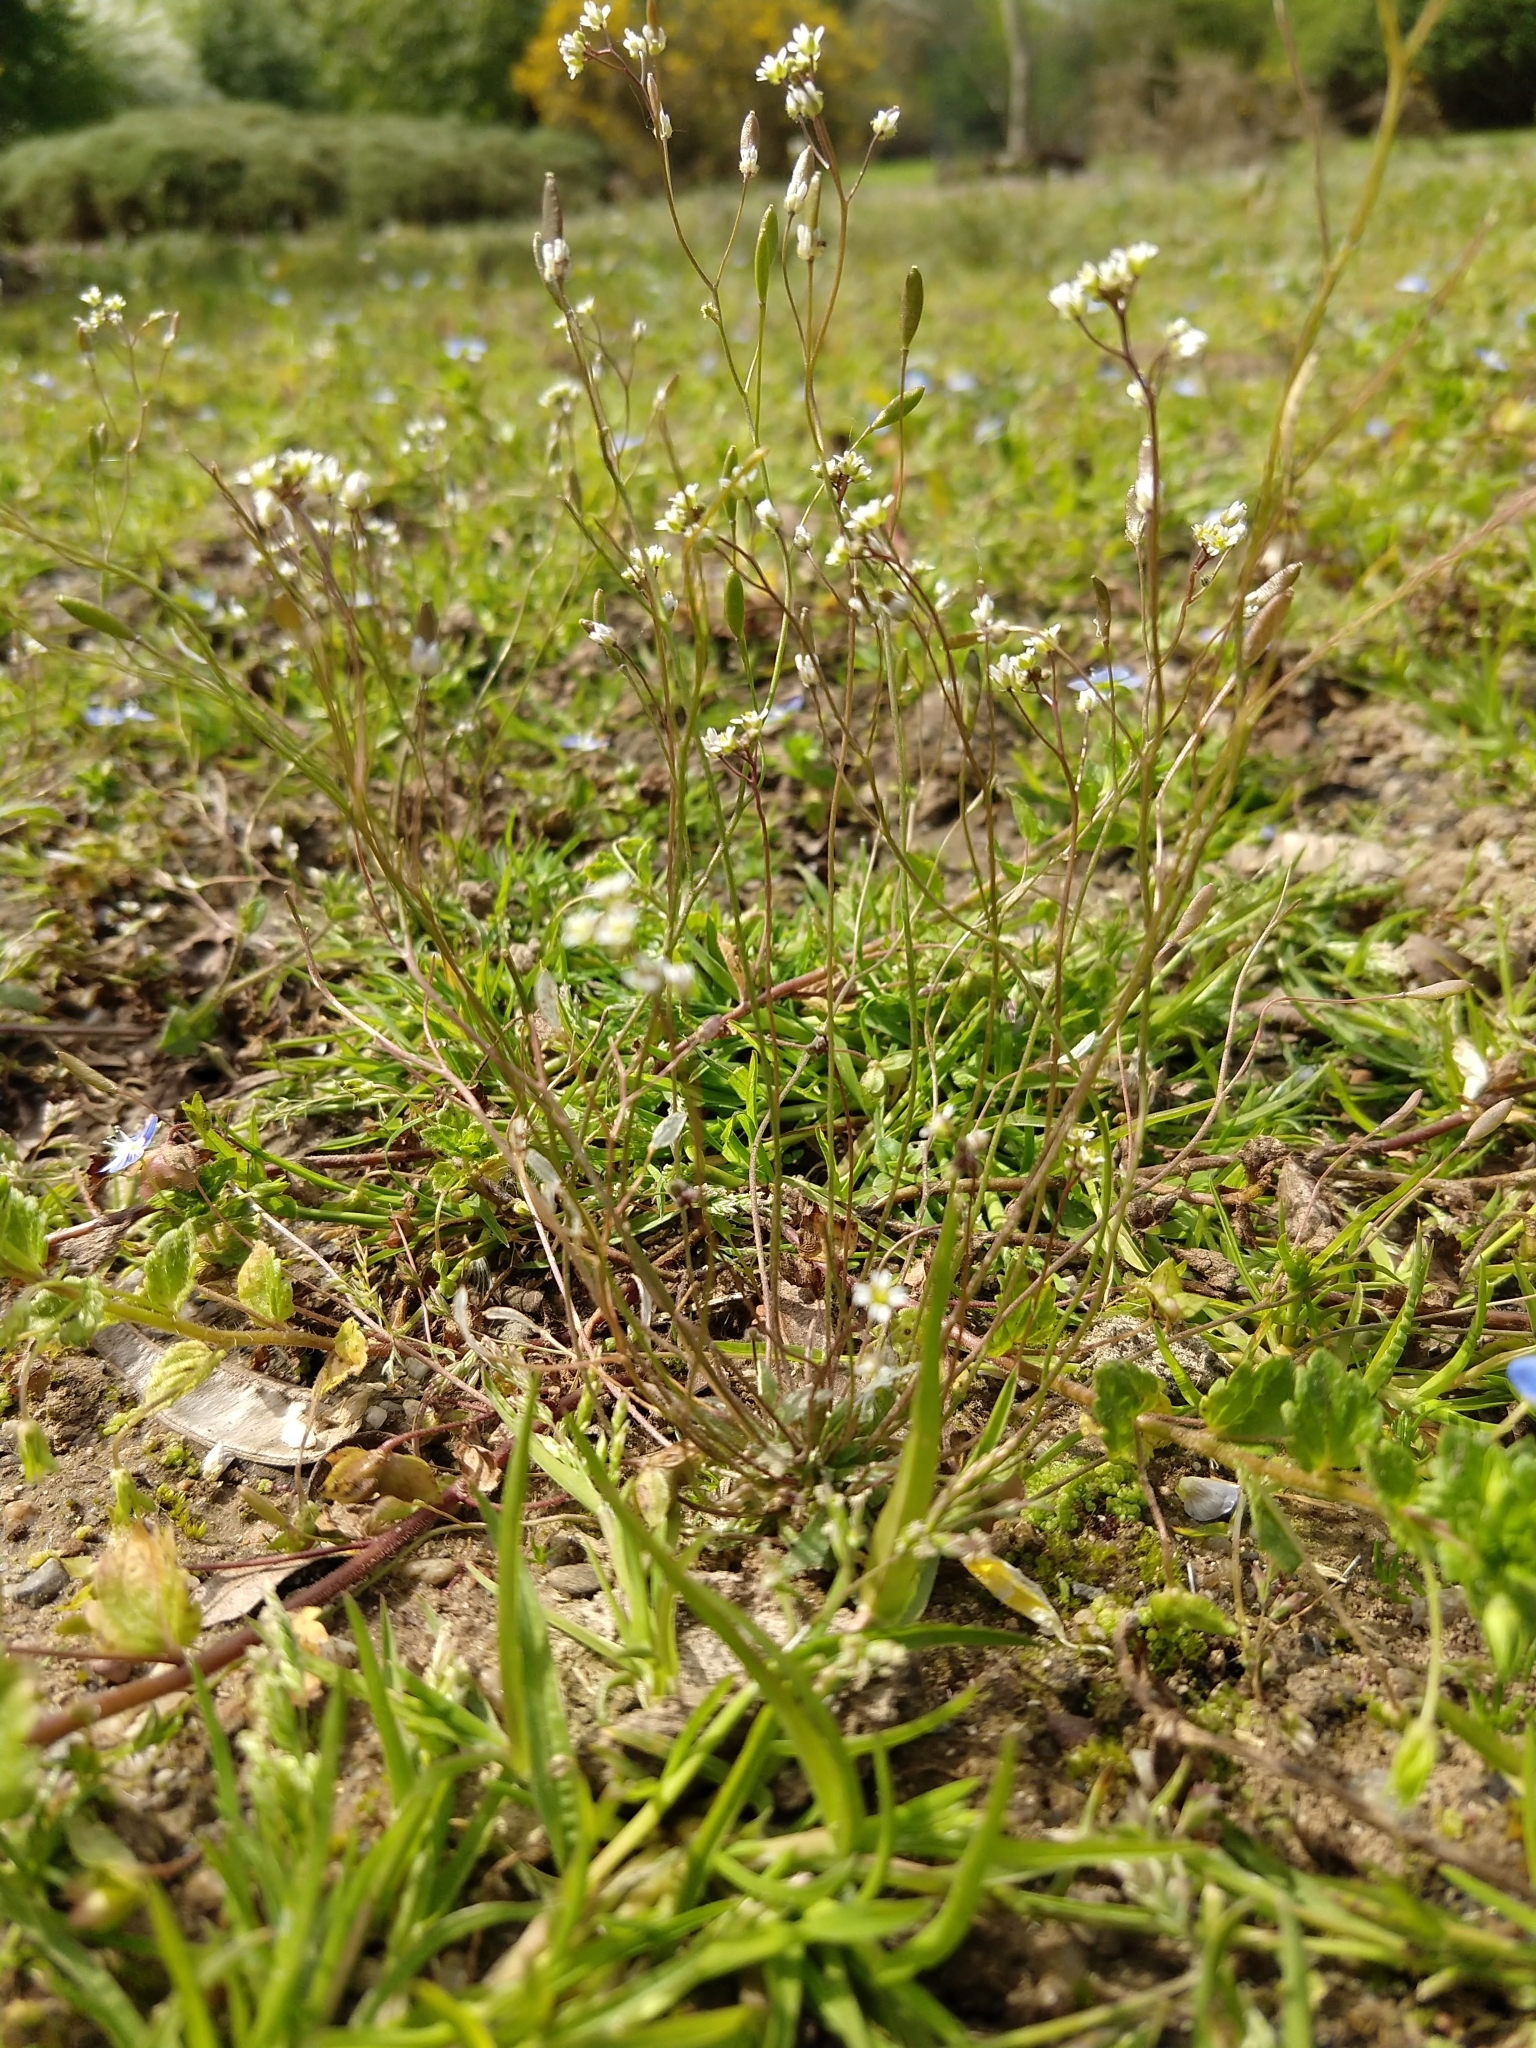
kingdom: Plantae
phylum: Tracheophyta
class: Magnoliopsida
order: Brassicales
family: Brassicaceae
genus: Draba
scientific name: Draba verna
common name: Spring draba
